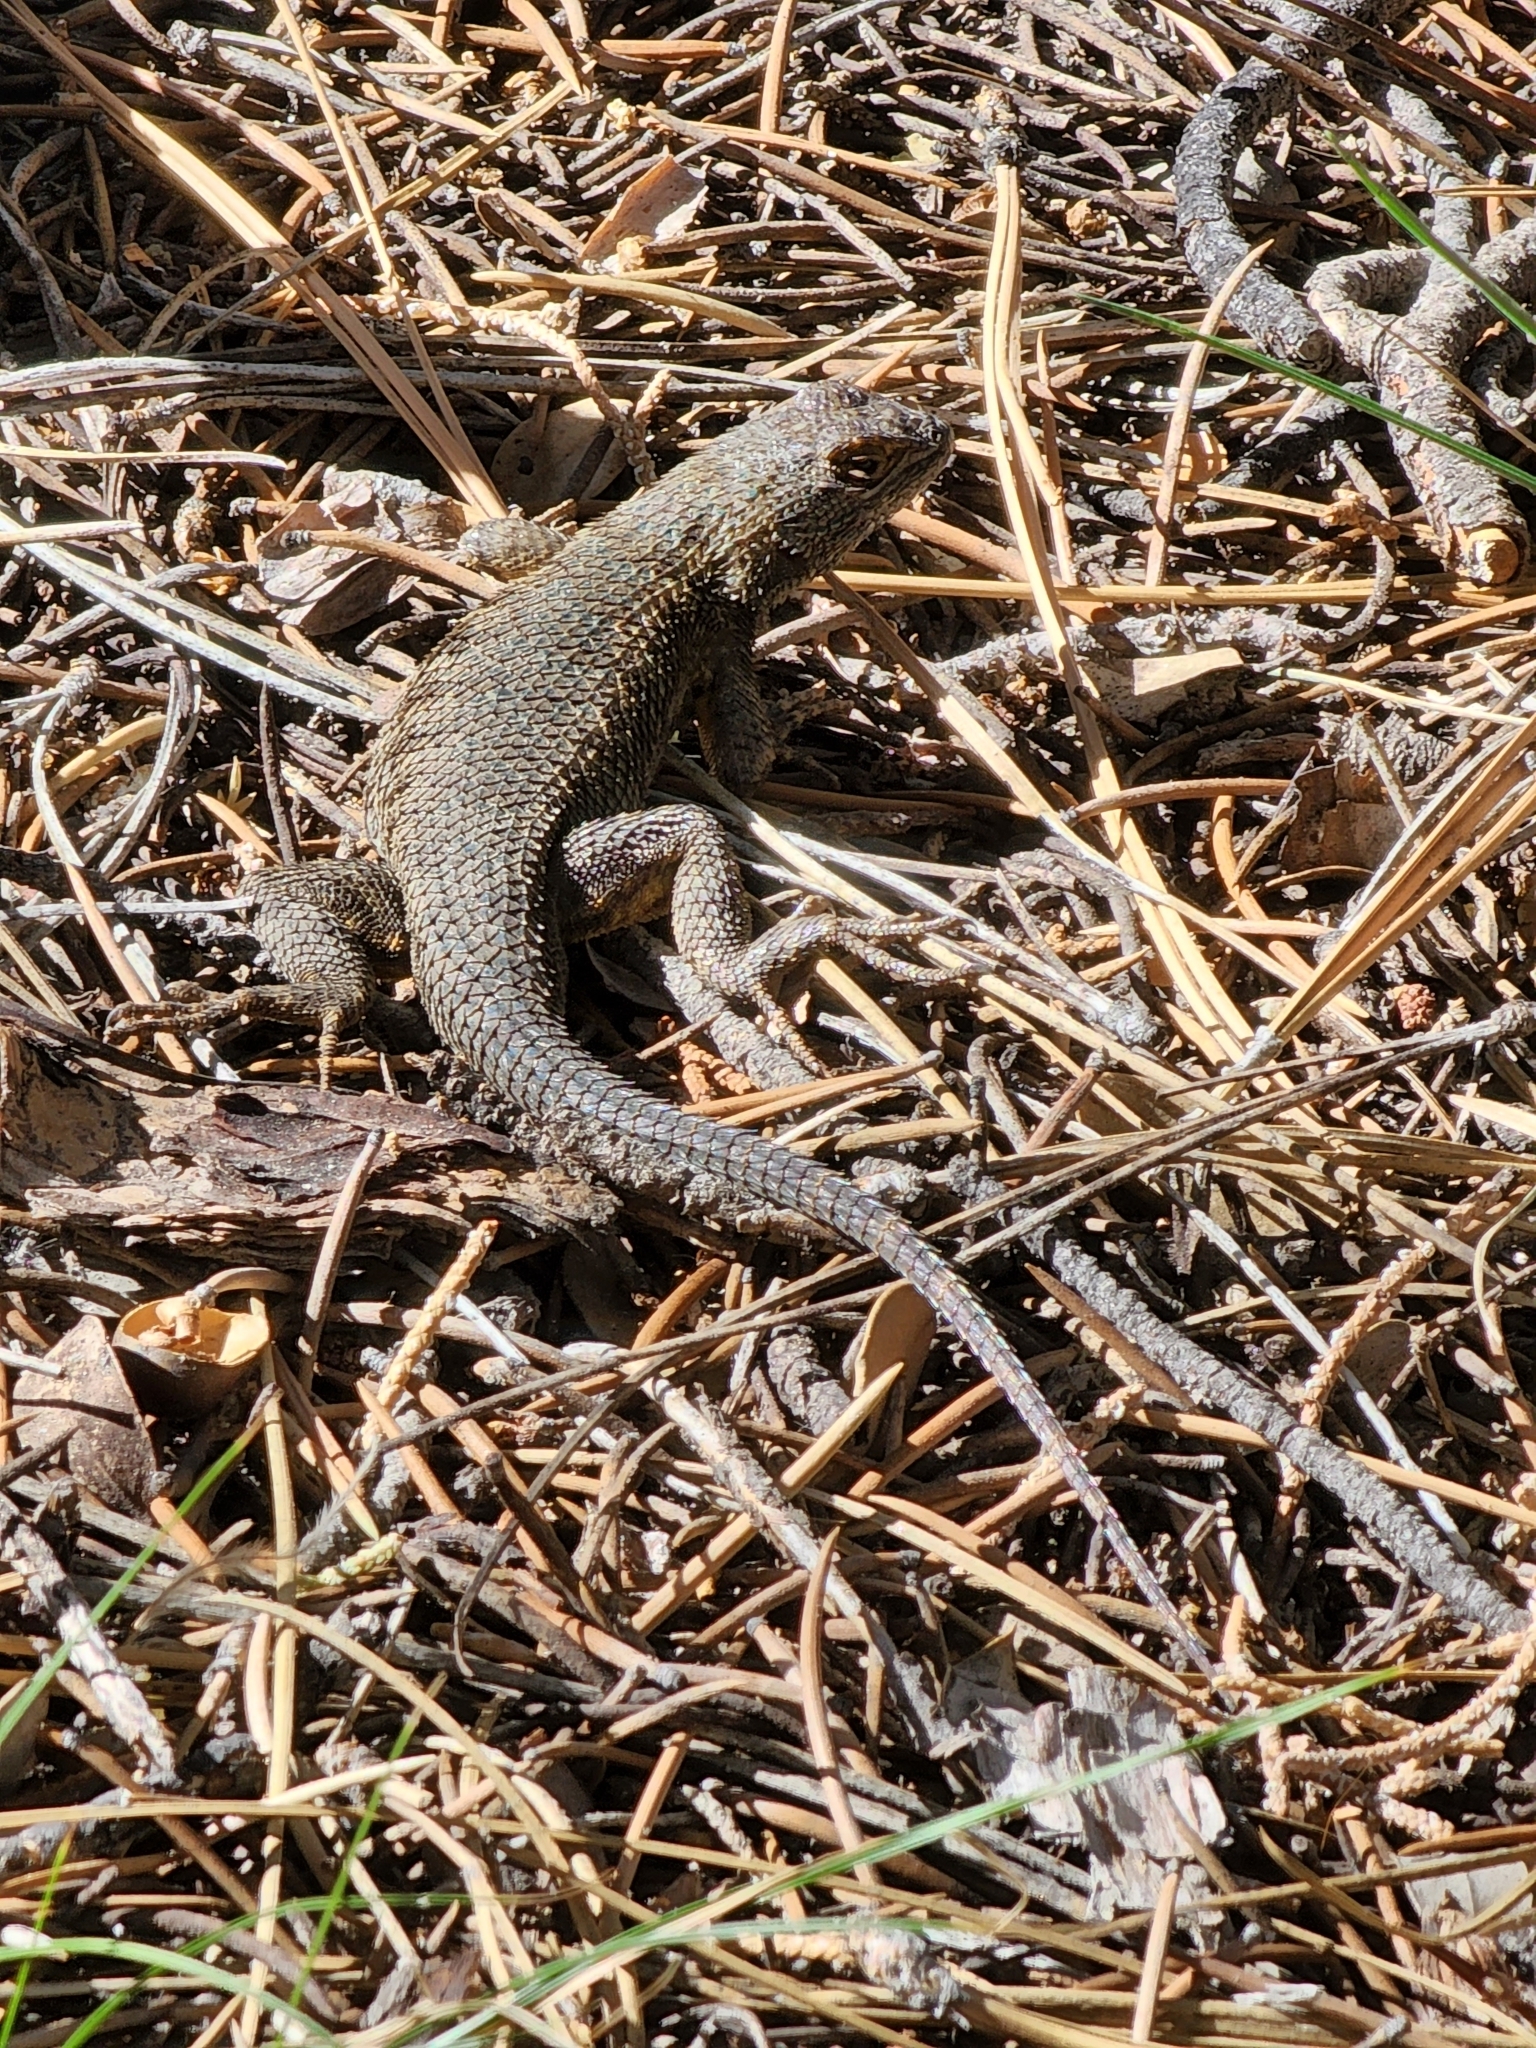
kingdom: Animalia
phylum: Chordata
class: Squamata
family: Phrynosomatidae
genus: Sceloporus
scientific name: Sceloporus occidentalis
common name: Western fence lizard
